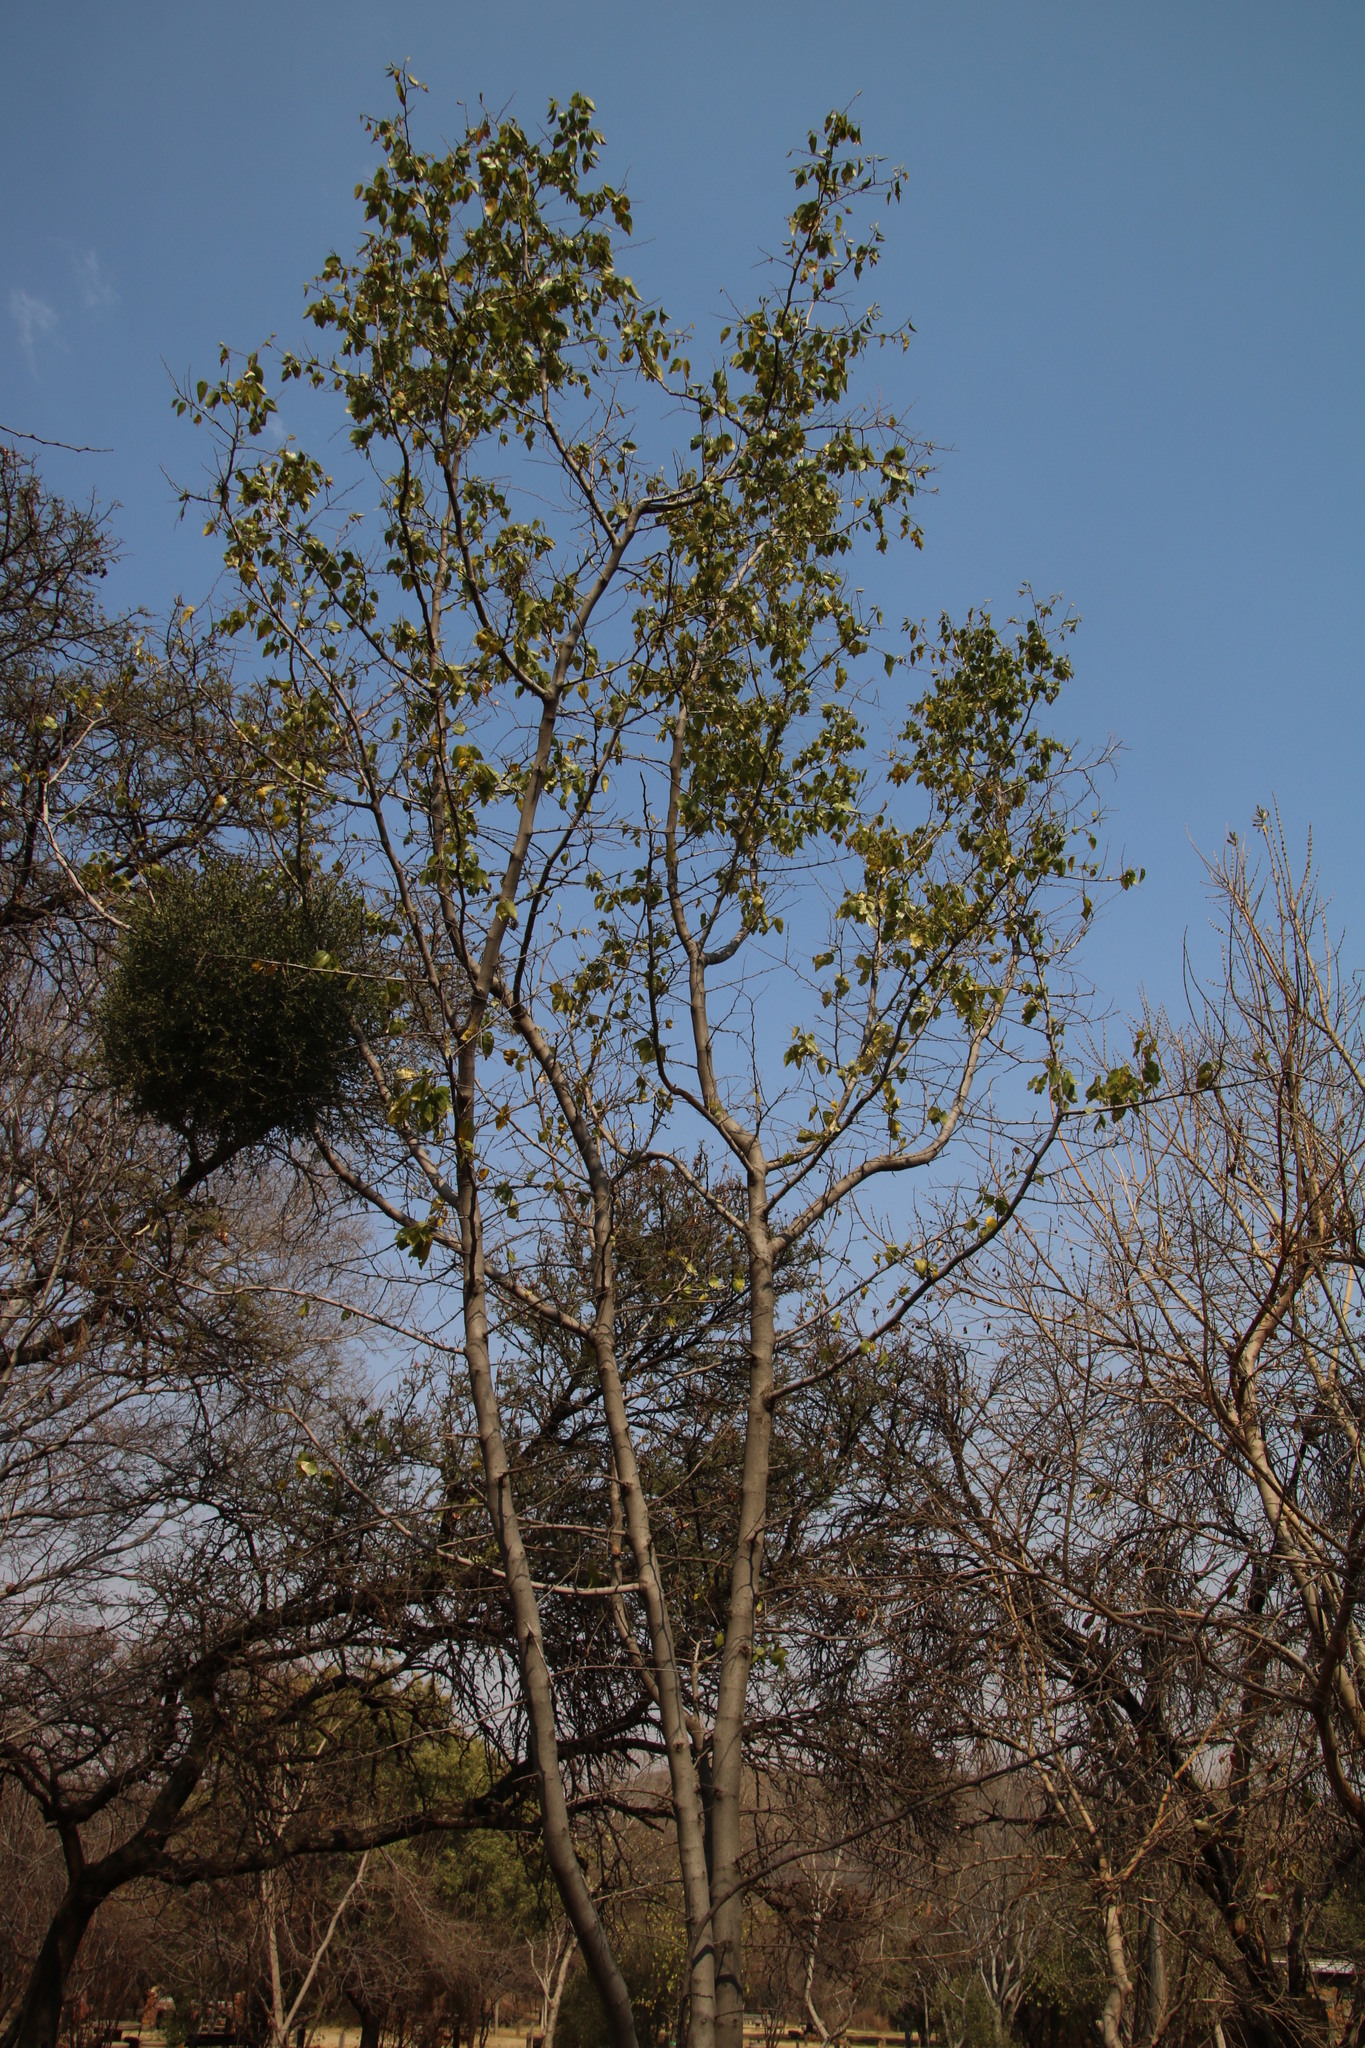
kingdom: Plantae
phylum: Tracheophyta
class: Magnoliopsida
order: Rosales
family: Rhamnaceae
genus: Ziziphus
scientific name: Ziziphus mucronata
